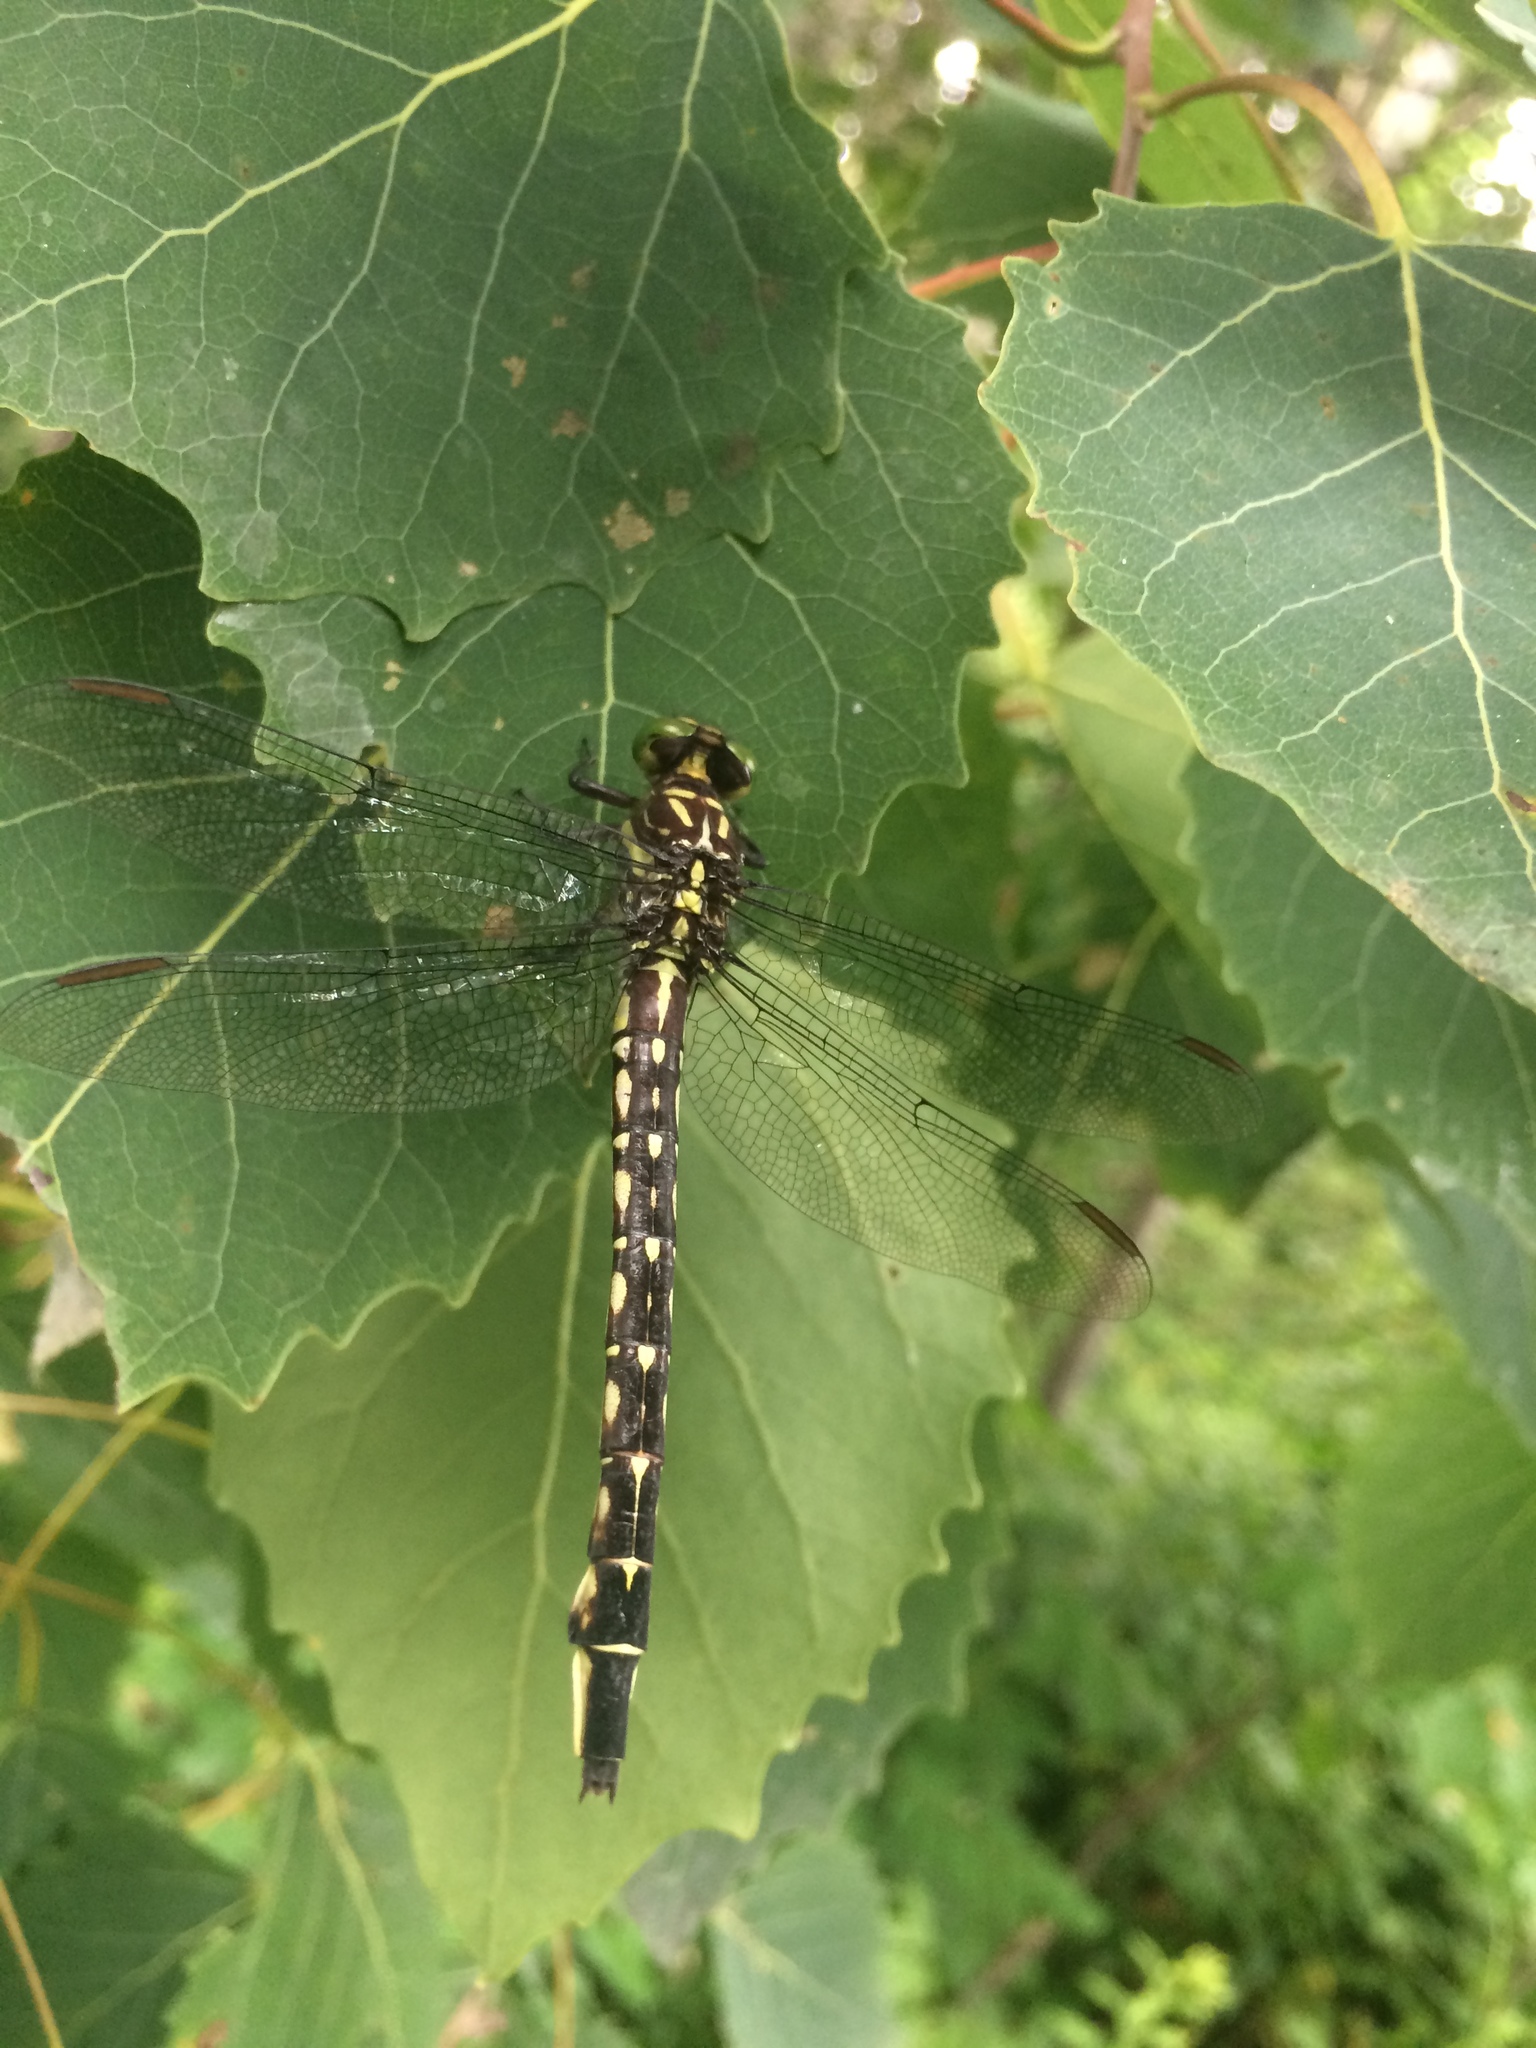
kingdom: Animalia
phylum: Arthropoda
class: Insecta
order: Odonata
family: Gomphidae
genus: Stylurus
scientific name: Stylurus spiniceps
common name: Arrow clubtail
